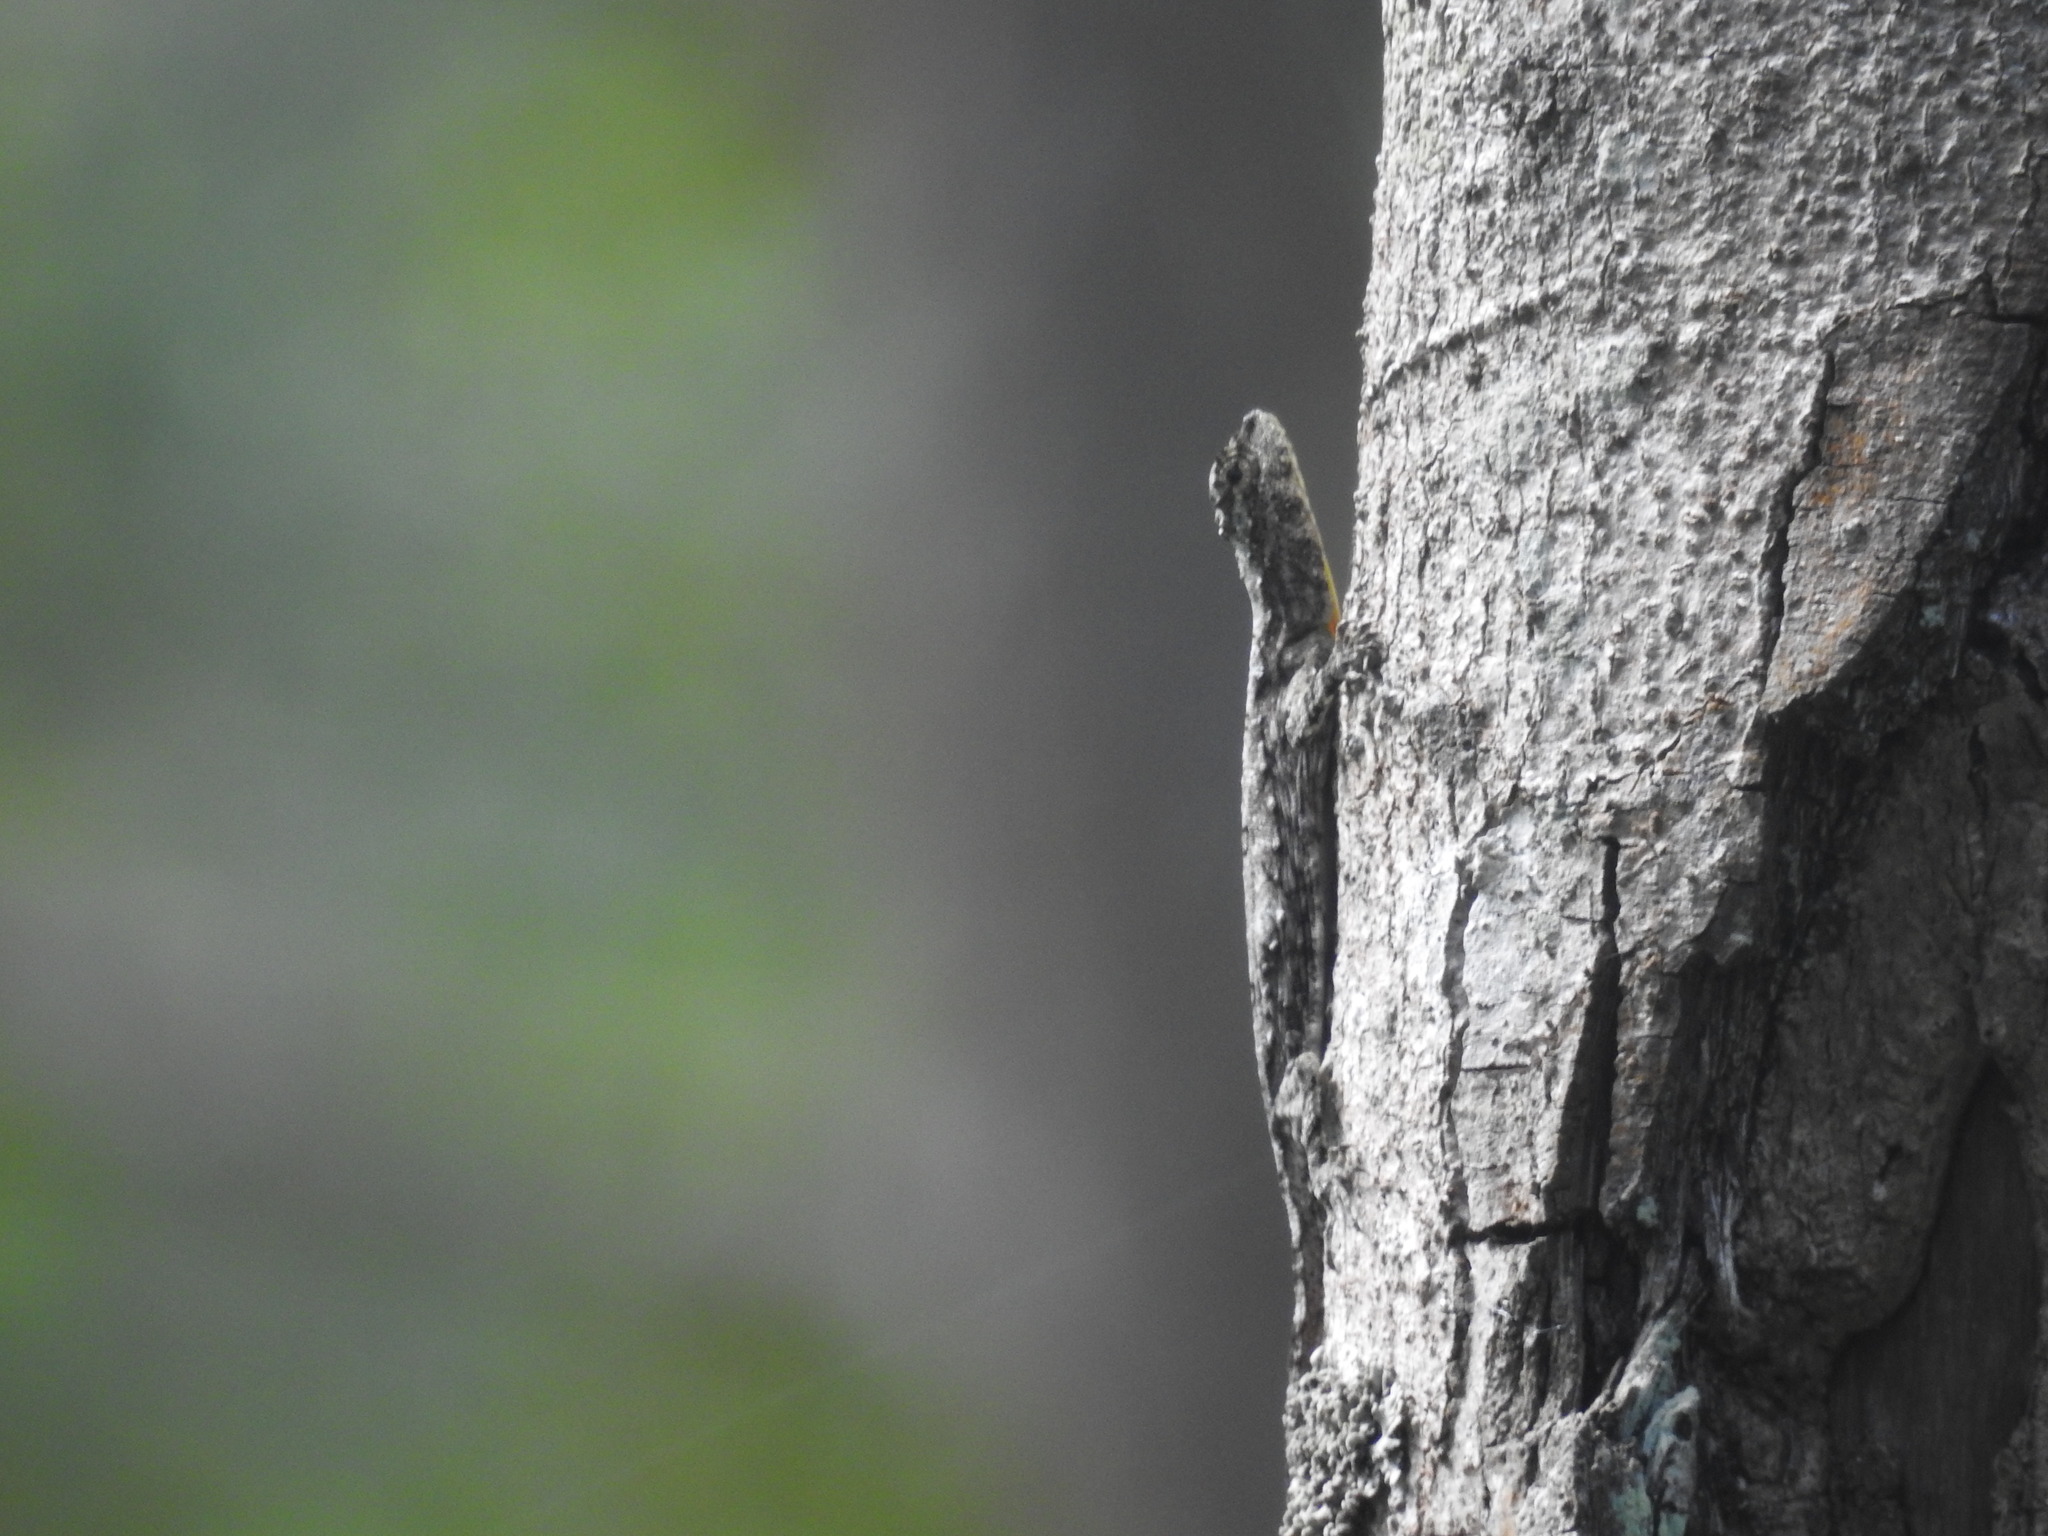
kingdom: Animalia
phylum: Chordata
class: Squamata
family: Agamidae
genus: Draco
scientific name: Draco dussumieri
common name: Southern flying lizard
